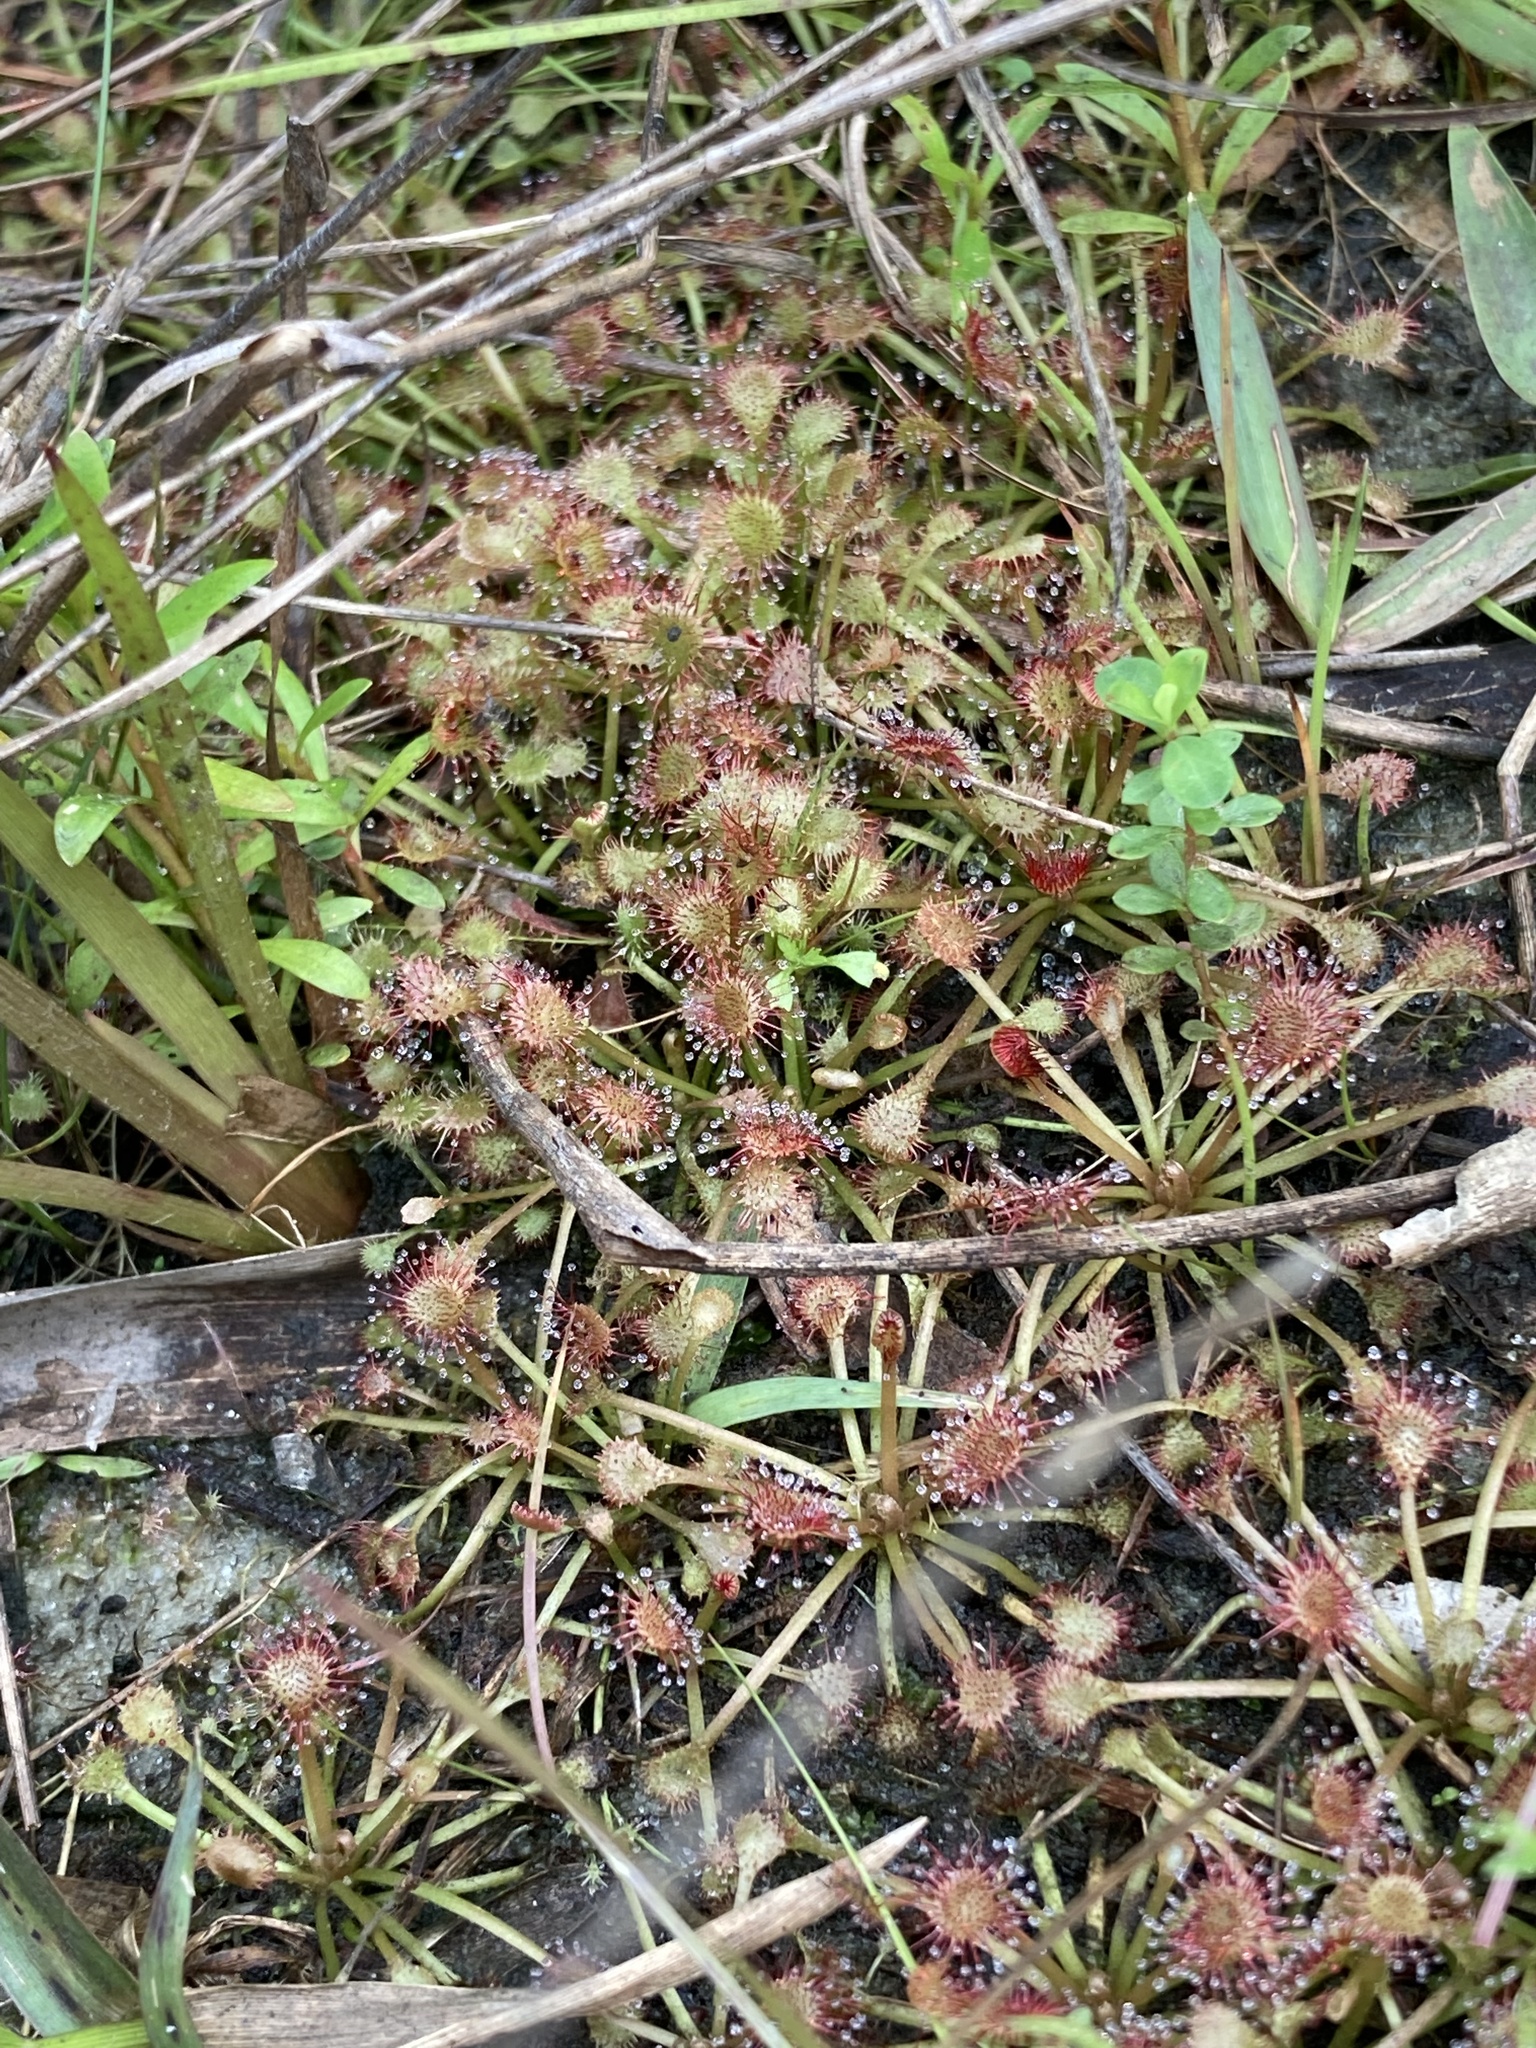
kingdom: Plantae
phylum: Tracheophyta
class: Magnoliopsida
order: Caryophyllales
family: Droseraceae
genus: Drosera
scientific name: Drosera capillaris
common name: Pink sundew
